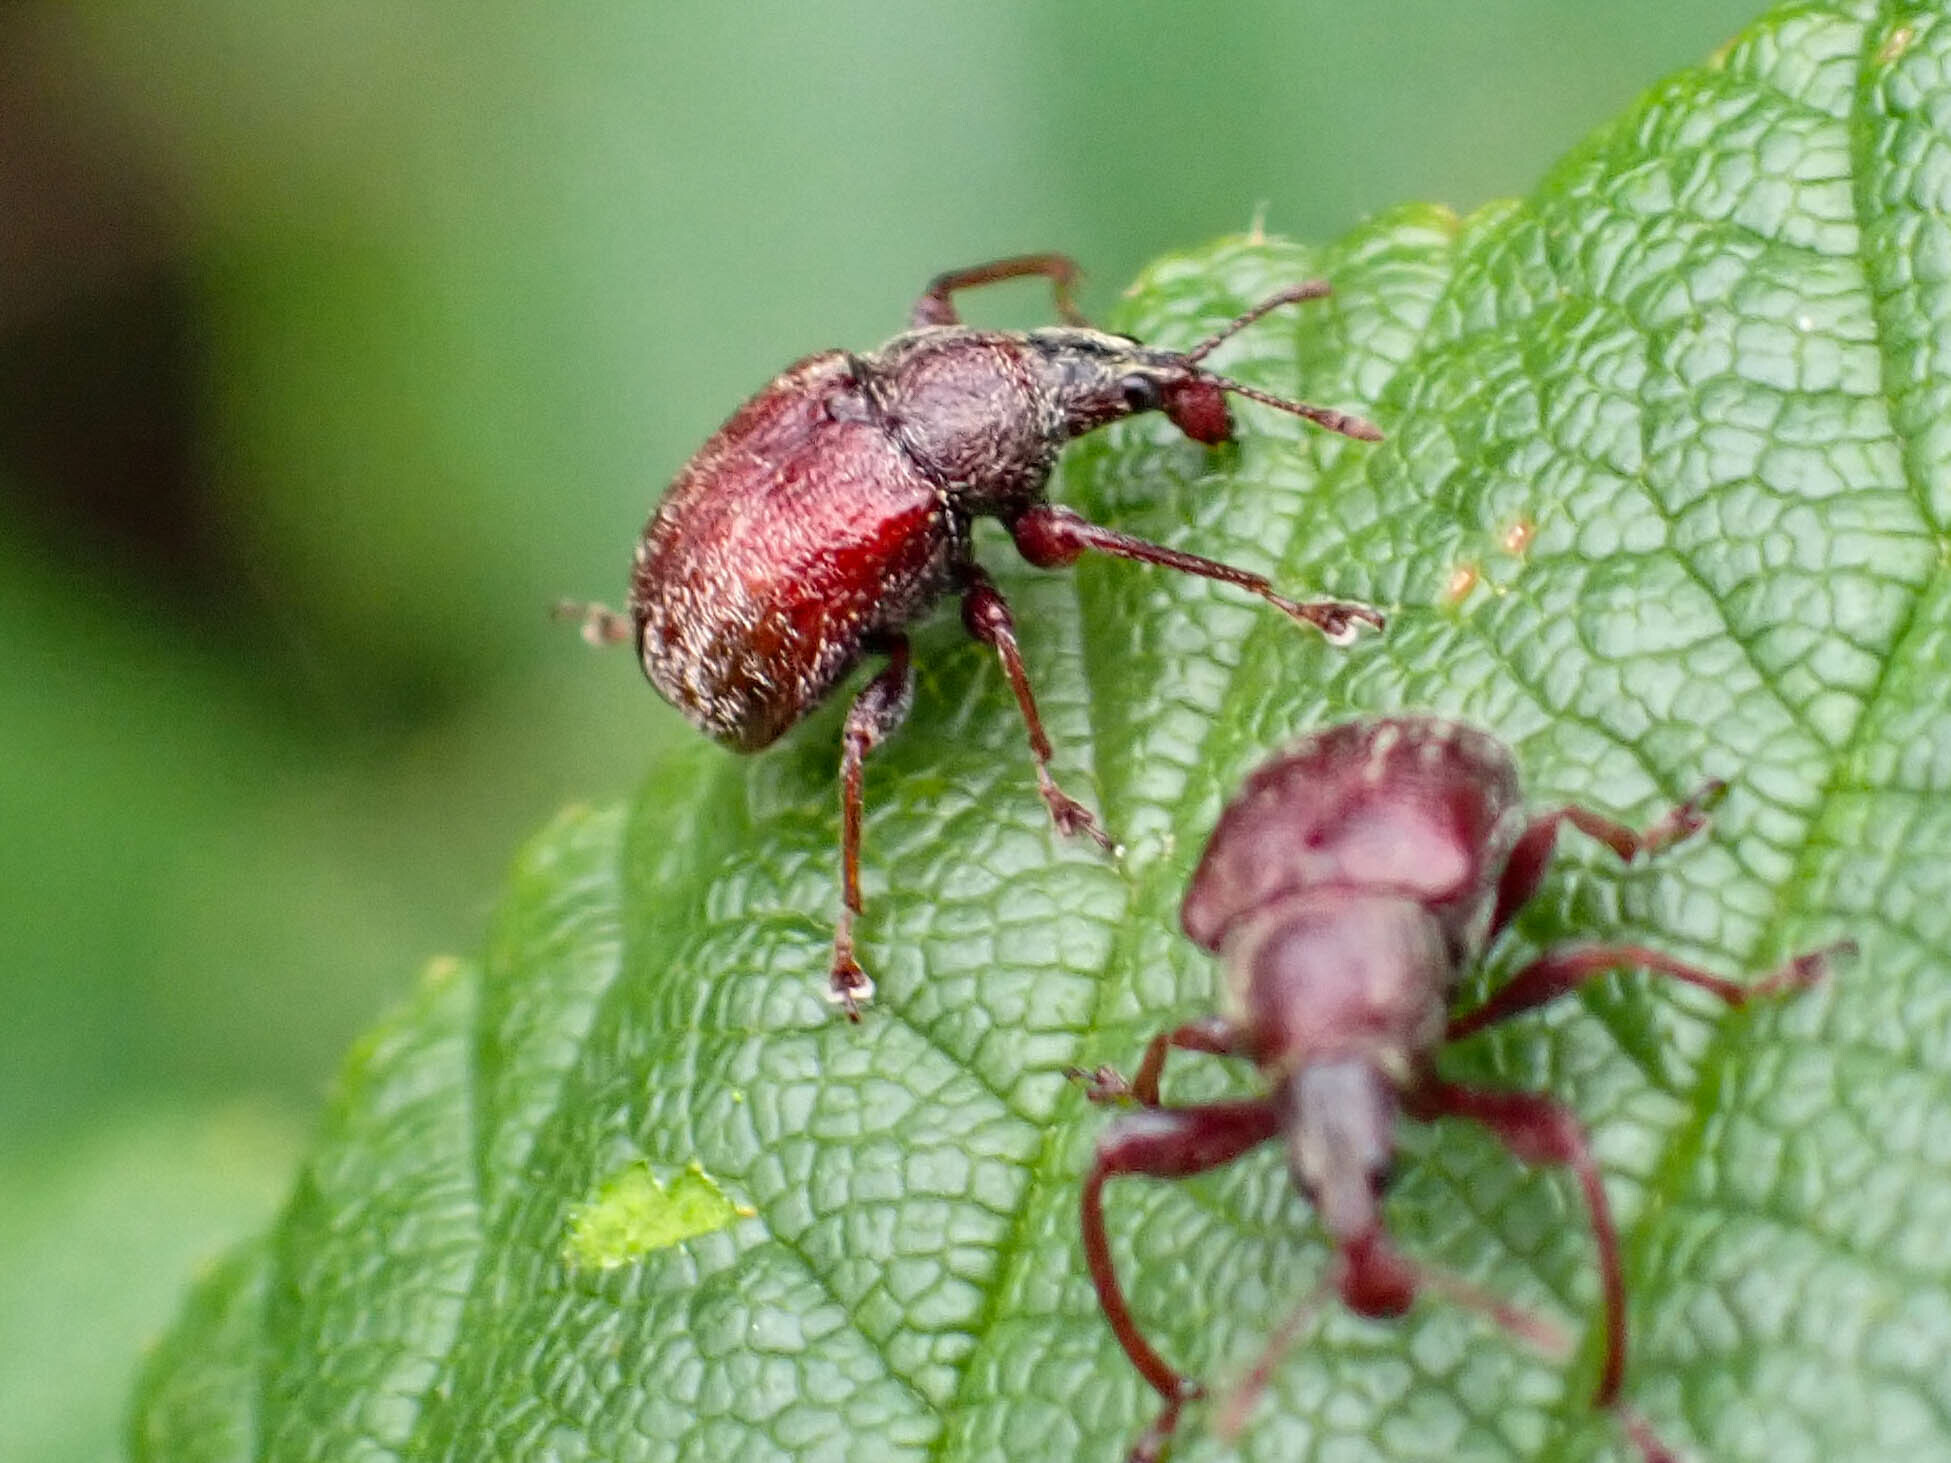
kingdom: Animalia
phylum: Arthropoda
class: Insecta
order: Coleoptera
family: Attelabidae
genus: Himatolabus
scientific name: Himatolabus pubescens
